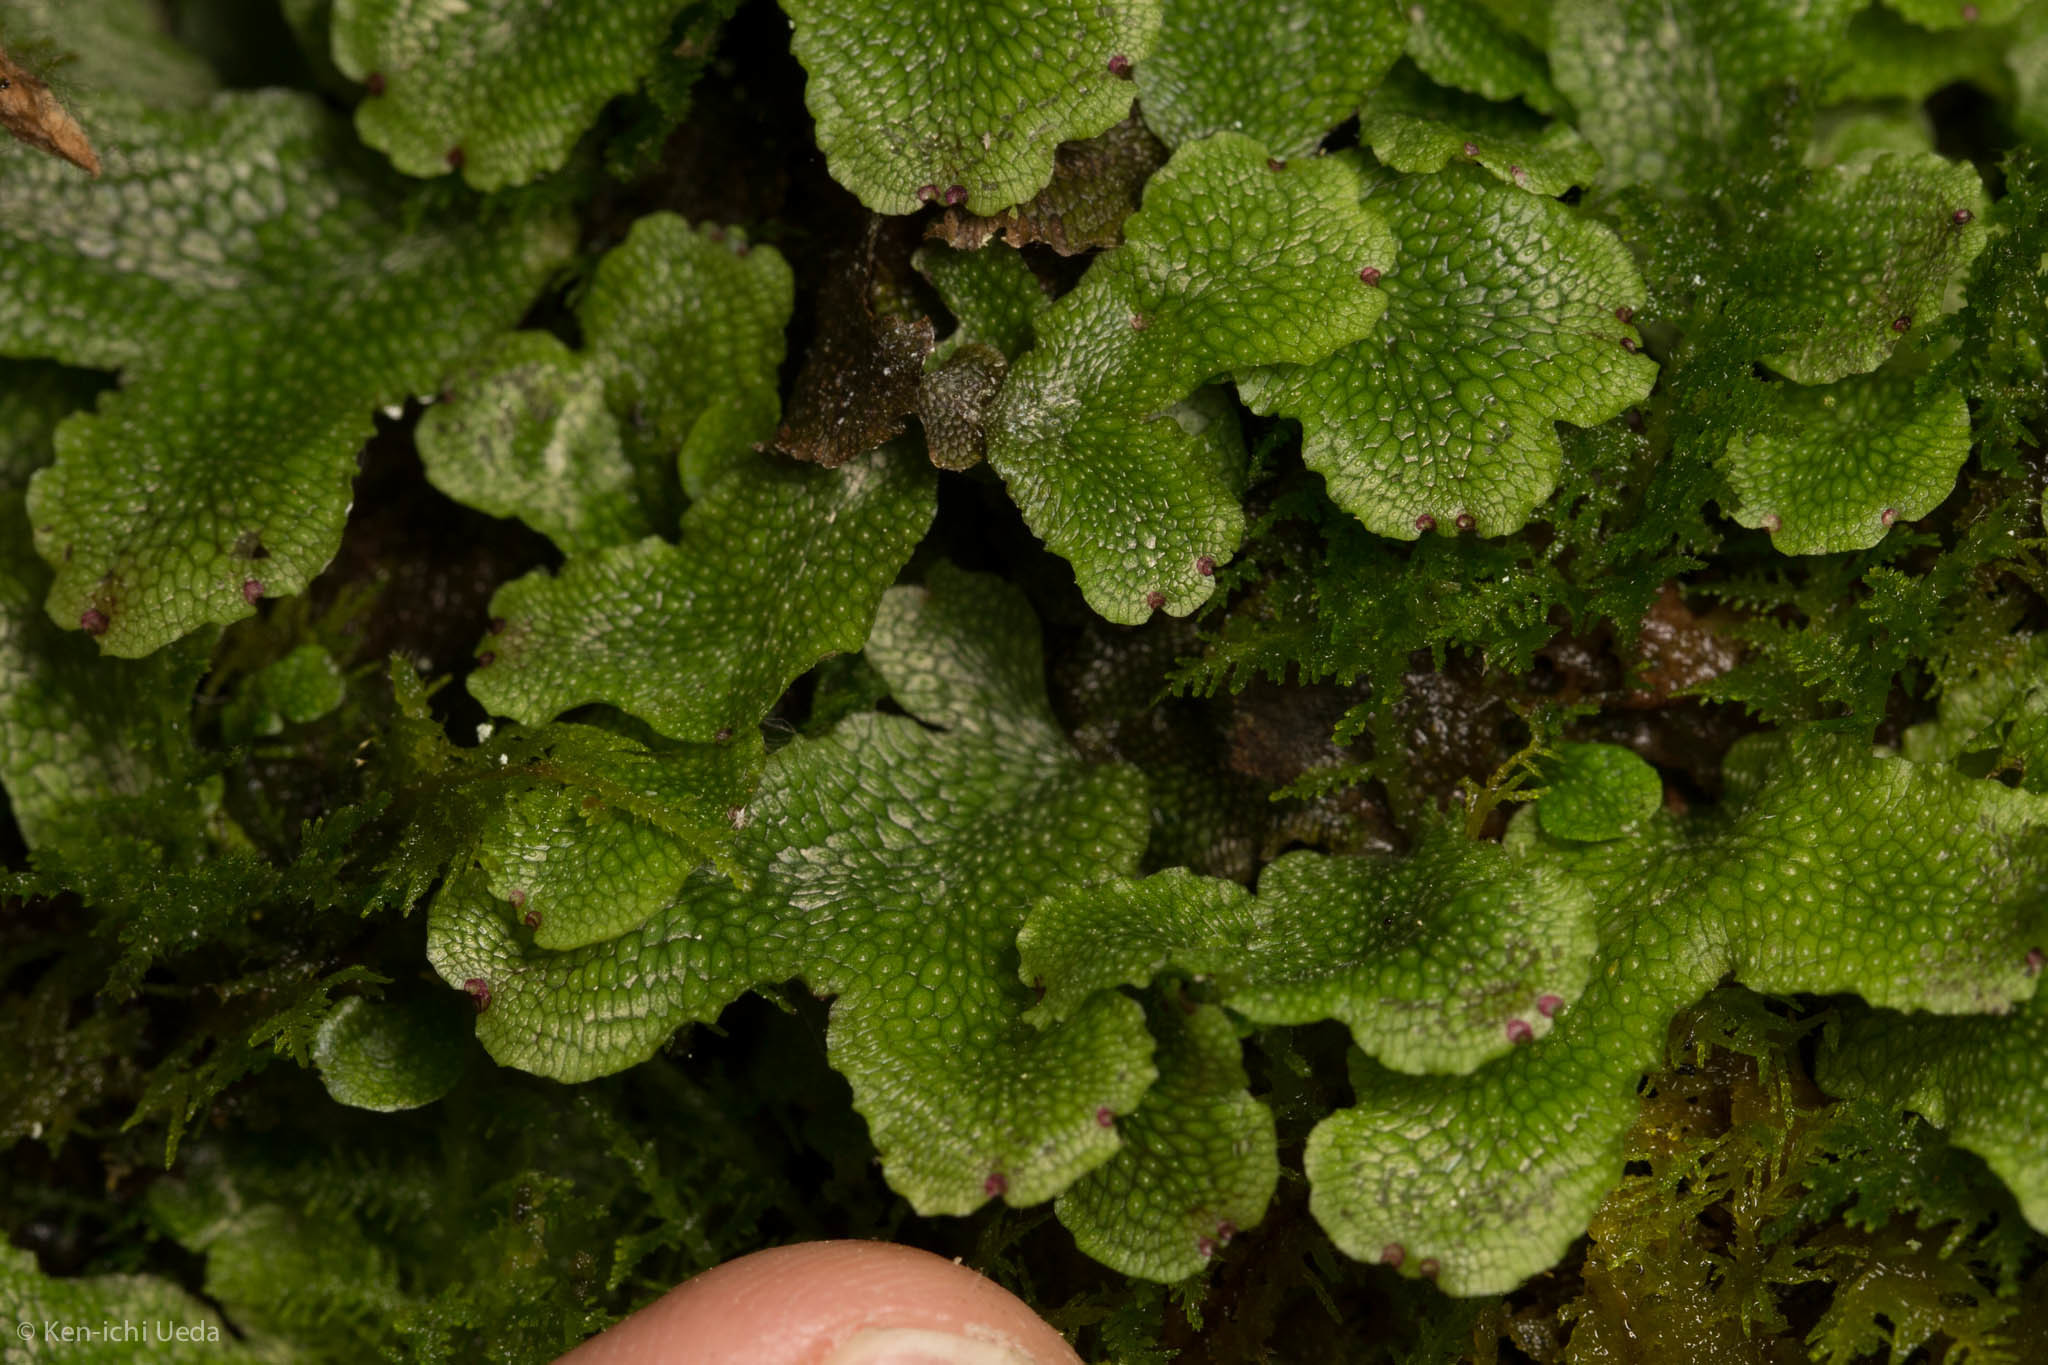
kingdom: Plantae
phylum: Marchantiophyta
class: Marchantiopsida
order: Marchantiales
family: Conocephalaceae
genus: Conocephalum
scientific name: Conocephalum salebrosum
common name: Cat-tongue liverwort
